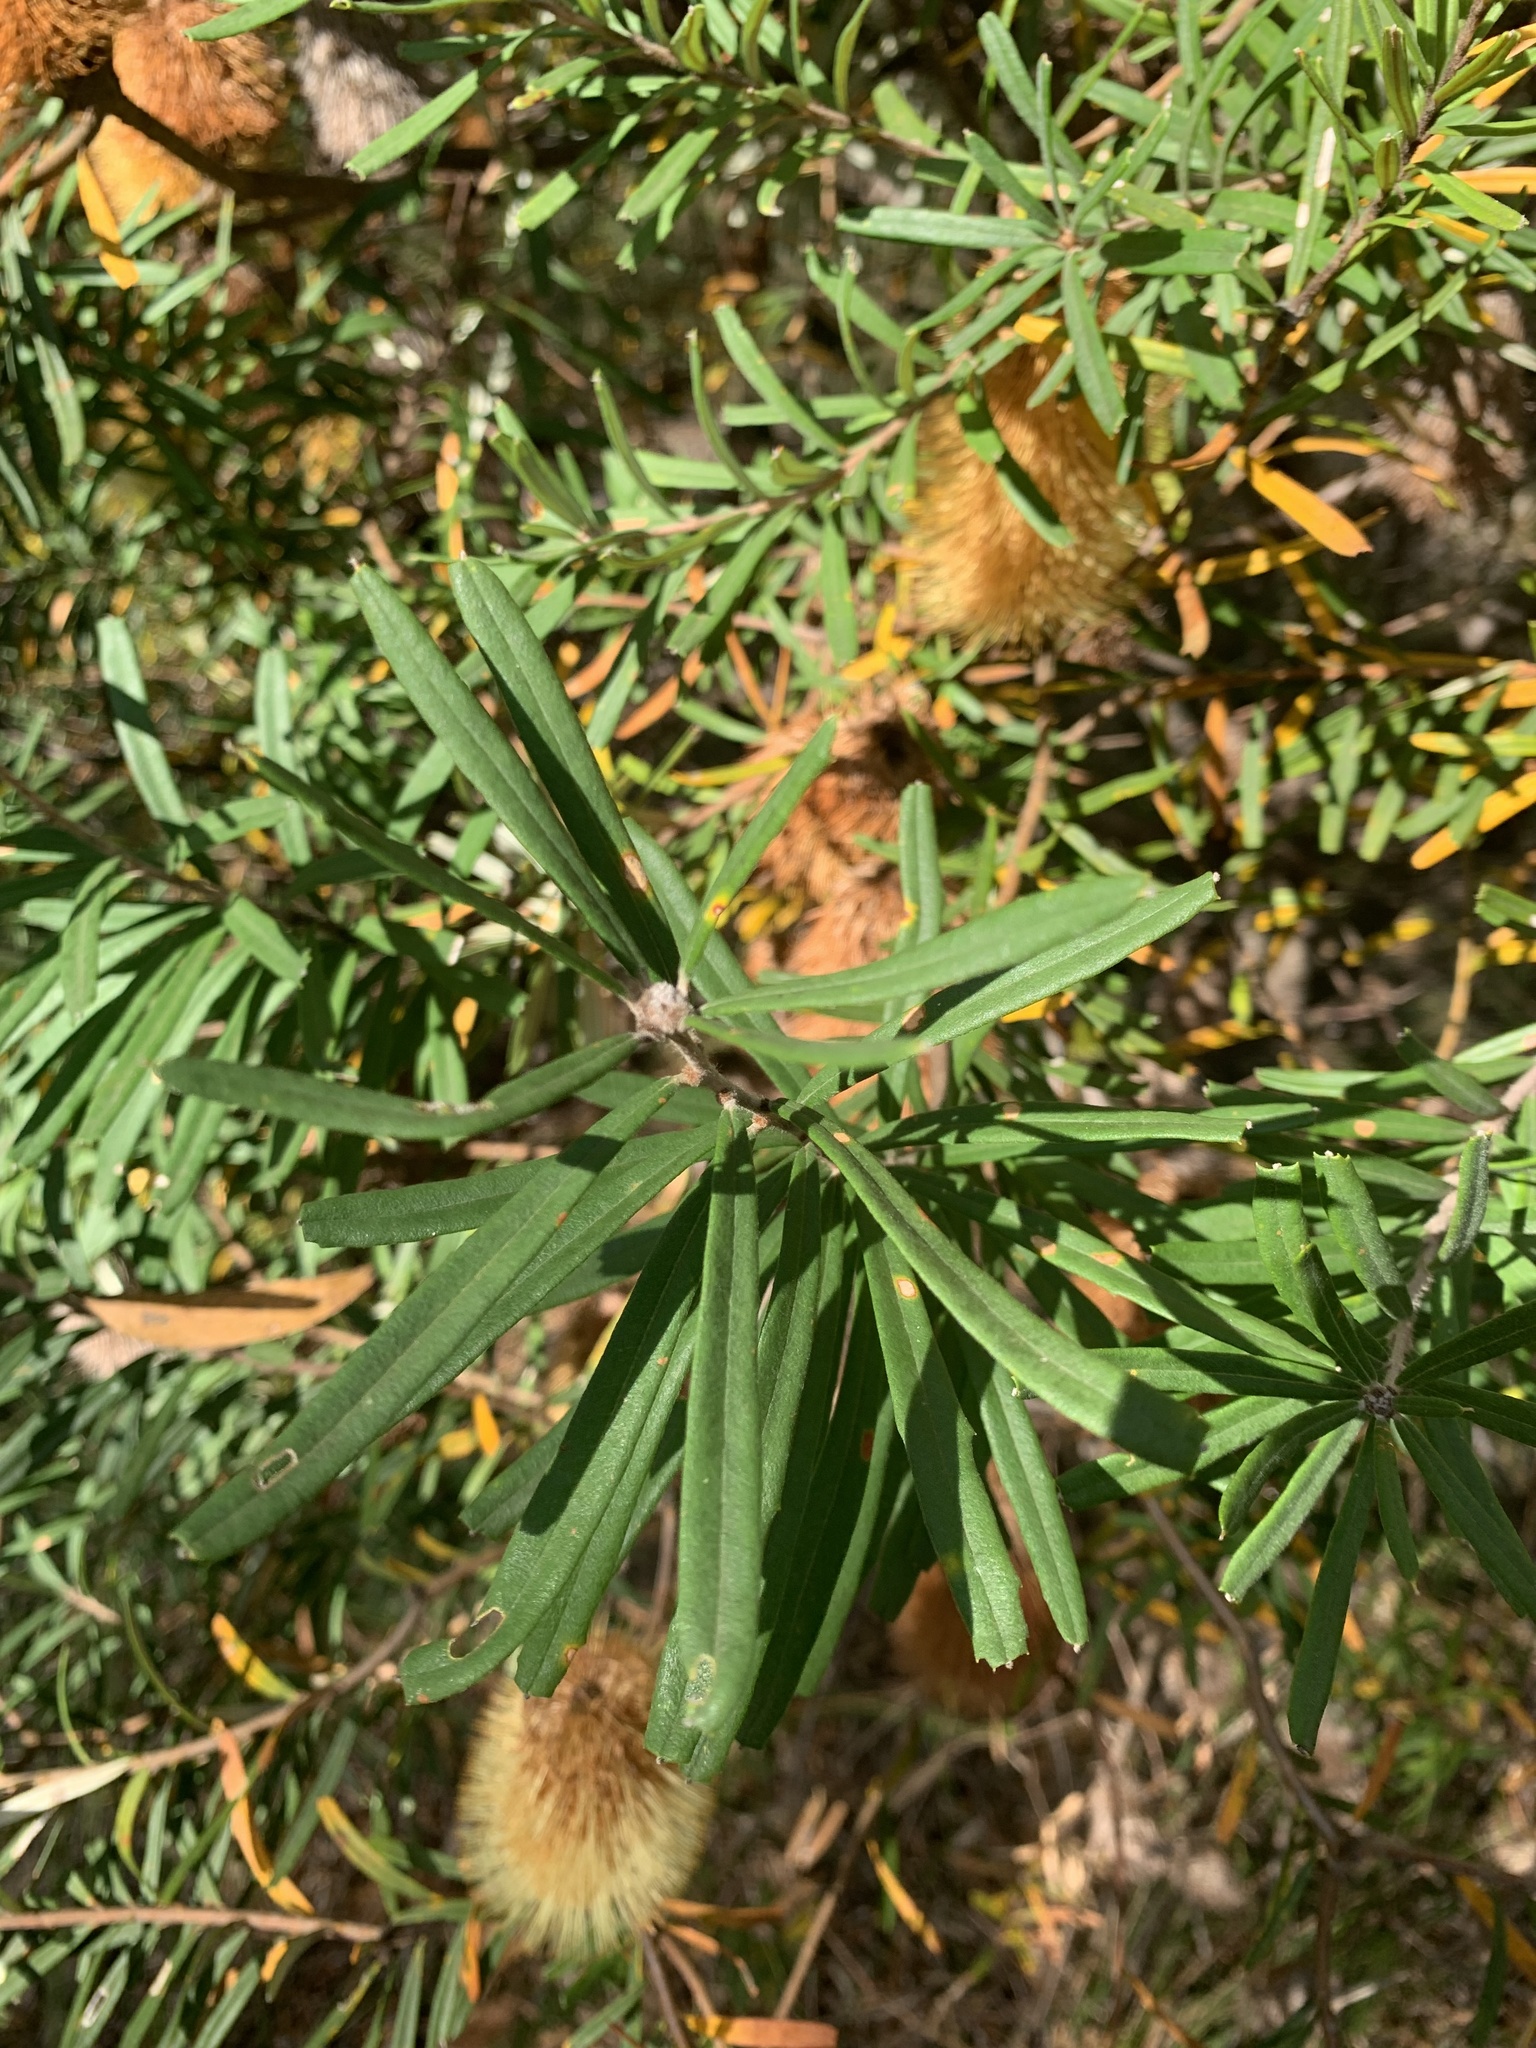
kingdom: Plantae
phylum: Tracheophyta
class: Magnoliopsida
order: Proteales
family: Proteaceae
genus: Banksia
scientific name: Banksia marginata
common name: Silver banksia
